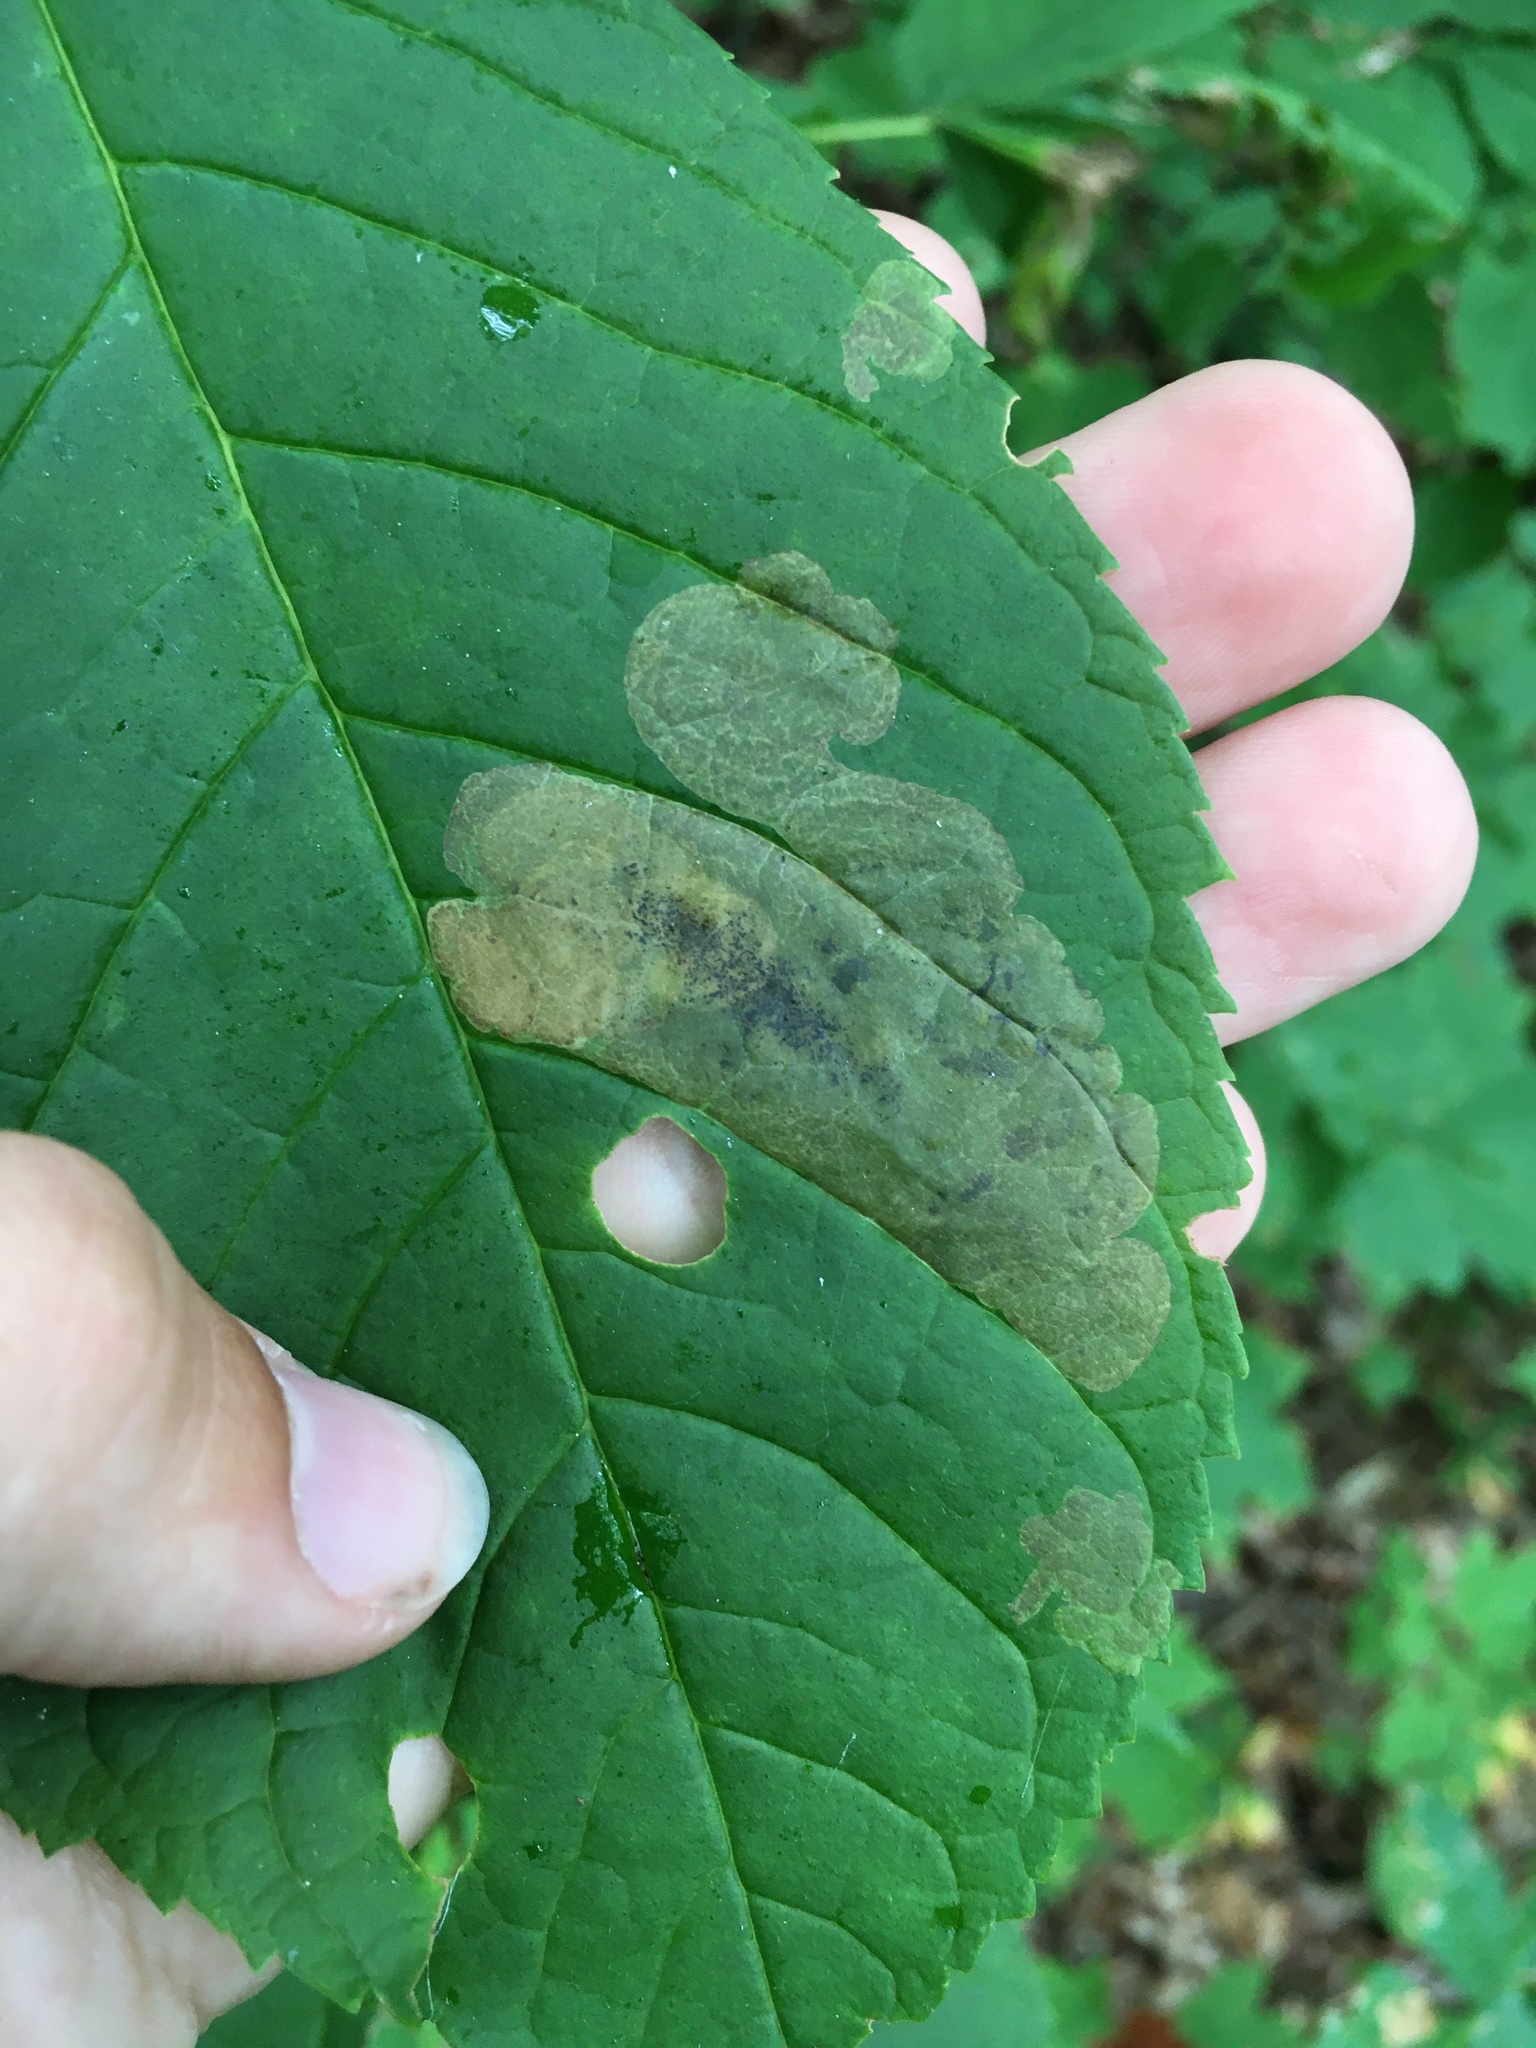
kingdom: Animalia
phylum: Arthropoda
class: Insecta
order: Lepidoptera
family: Gracillariidae
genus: Gracillaria
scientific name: Gracillaria syringella
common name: Common slender
